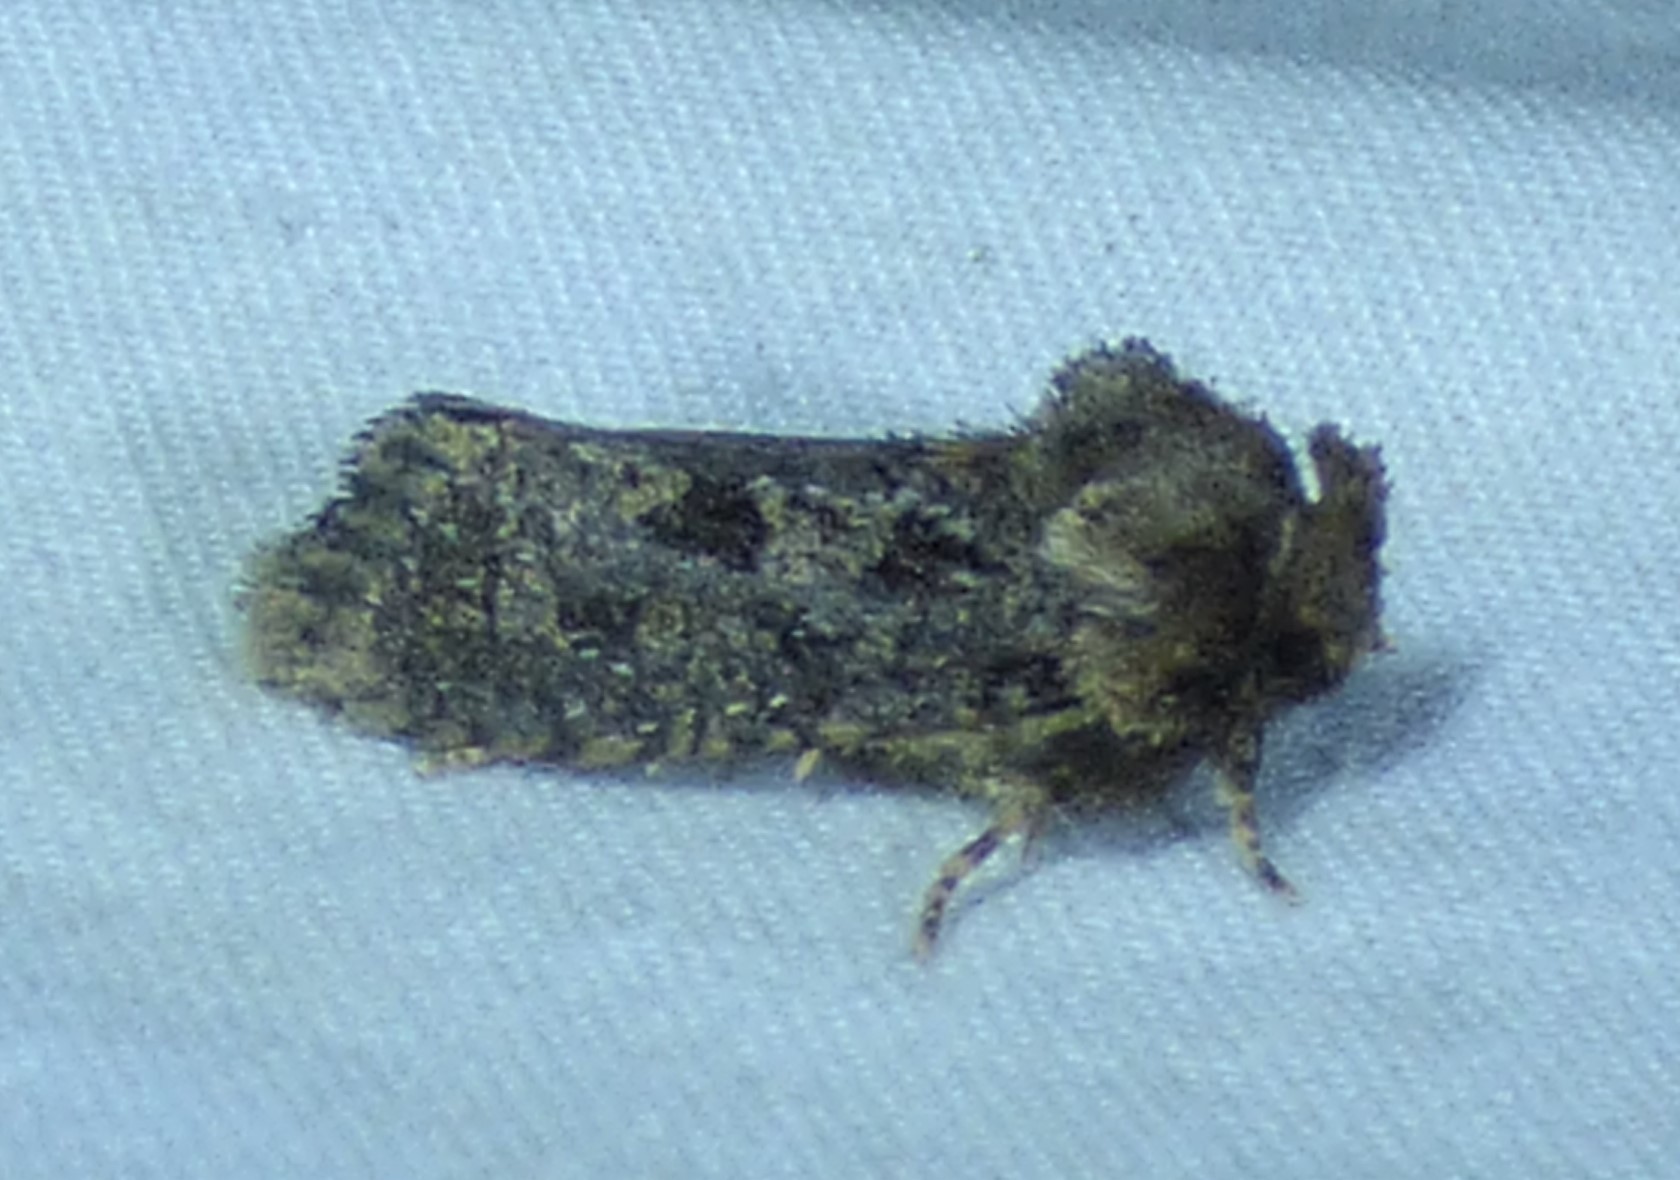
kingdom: Animalia
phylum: Arthropoda
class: Insecta
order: Lepidoptera
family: Tineidae
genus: Acrolophus
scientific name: Acrolophus arcanella
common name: Arcane grass tubeworm moth
